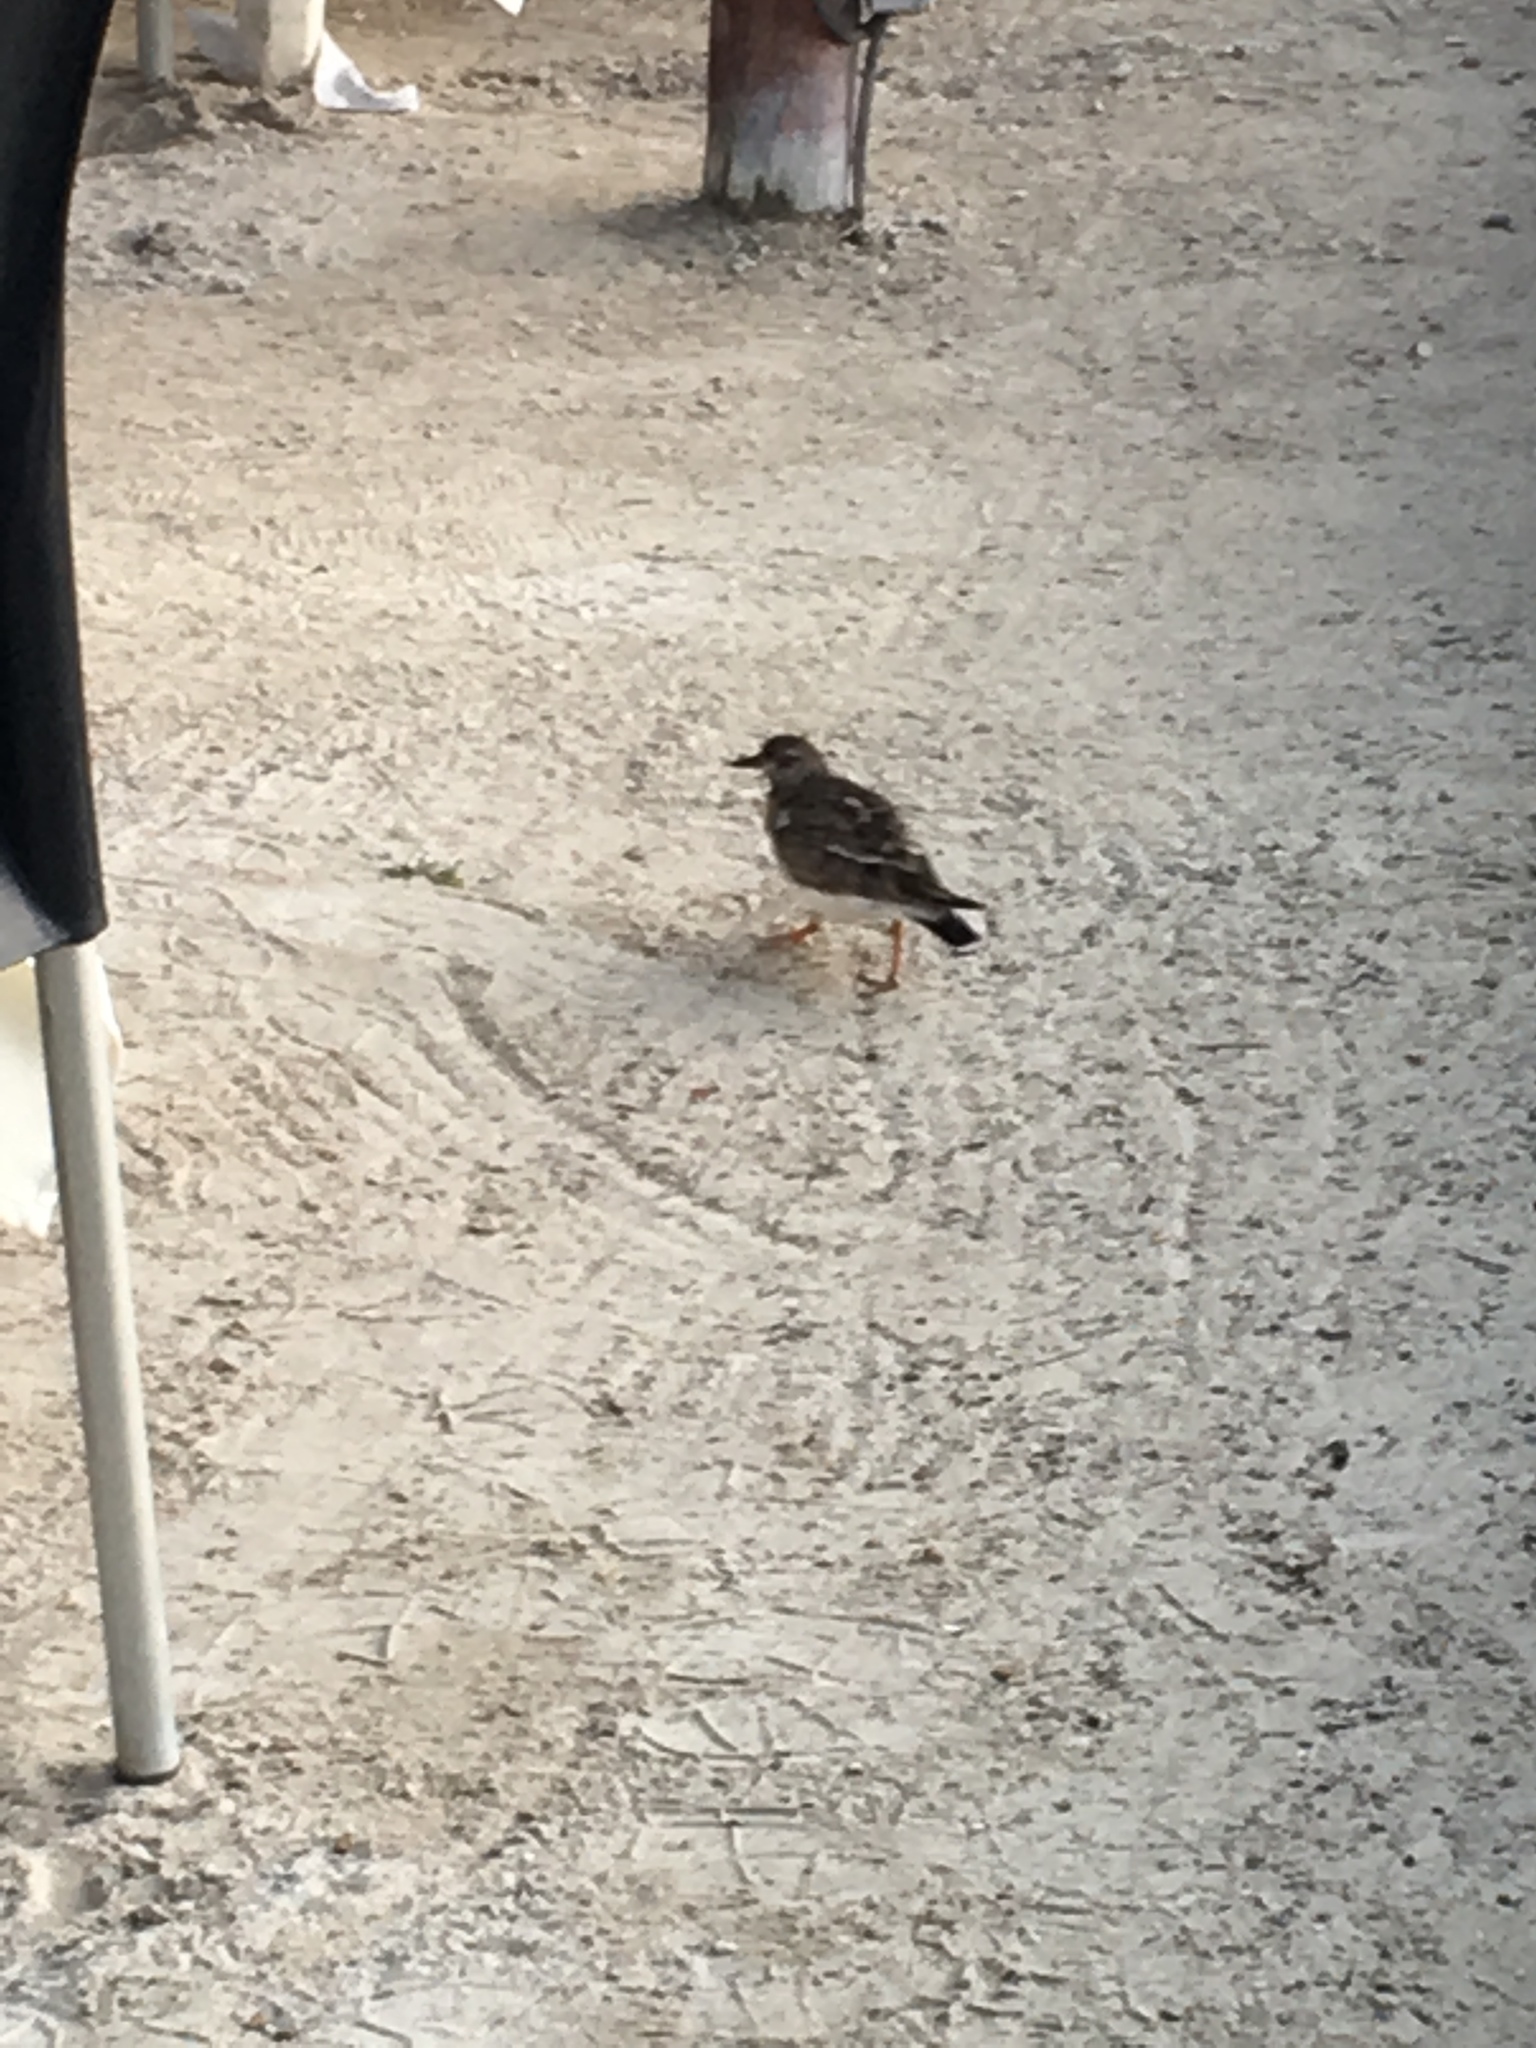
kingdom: Animalia
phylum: Chordata
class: Aves
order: Charadriiformes
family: Scolopacidae
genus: Arenaria
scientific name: Arenaria interpres
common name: Ruddy turnstone
